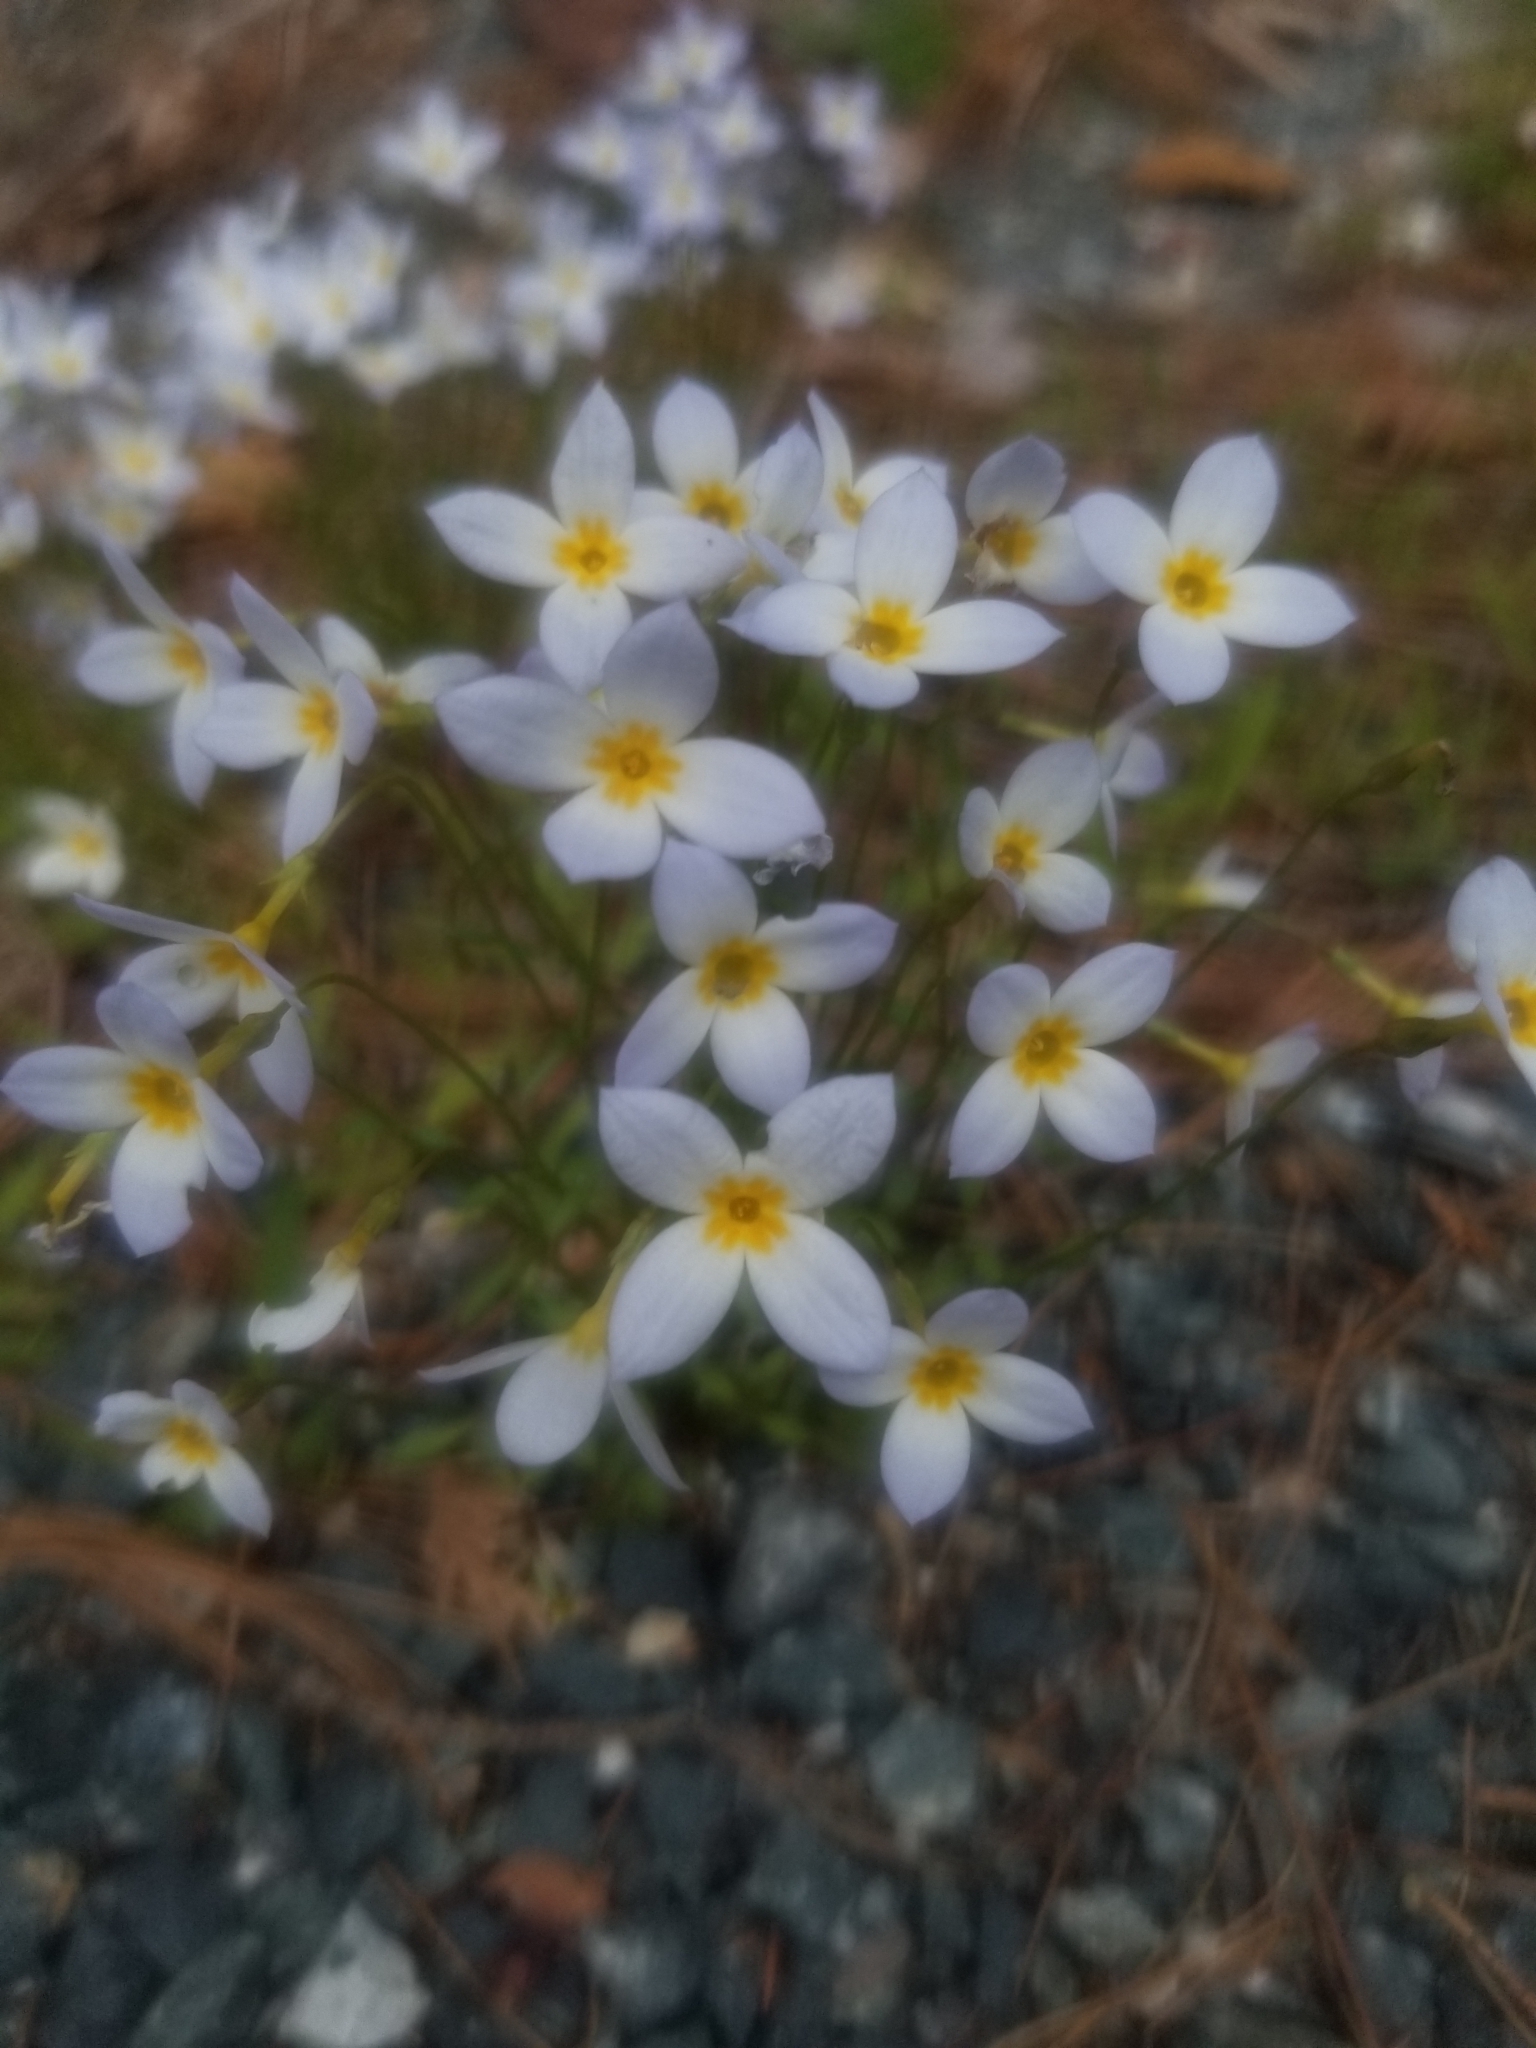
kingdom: Plantae
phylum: Tracheophyta
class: Magnoliopsida
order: Gentianales
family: Rubiaceae
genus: Houstonia
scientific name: Houstonia caerulea
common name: Bluets
